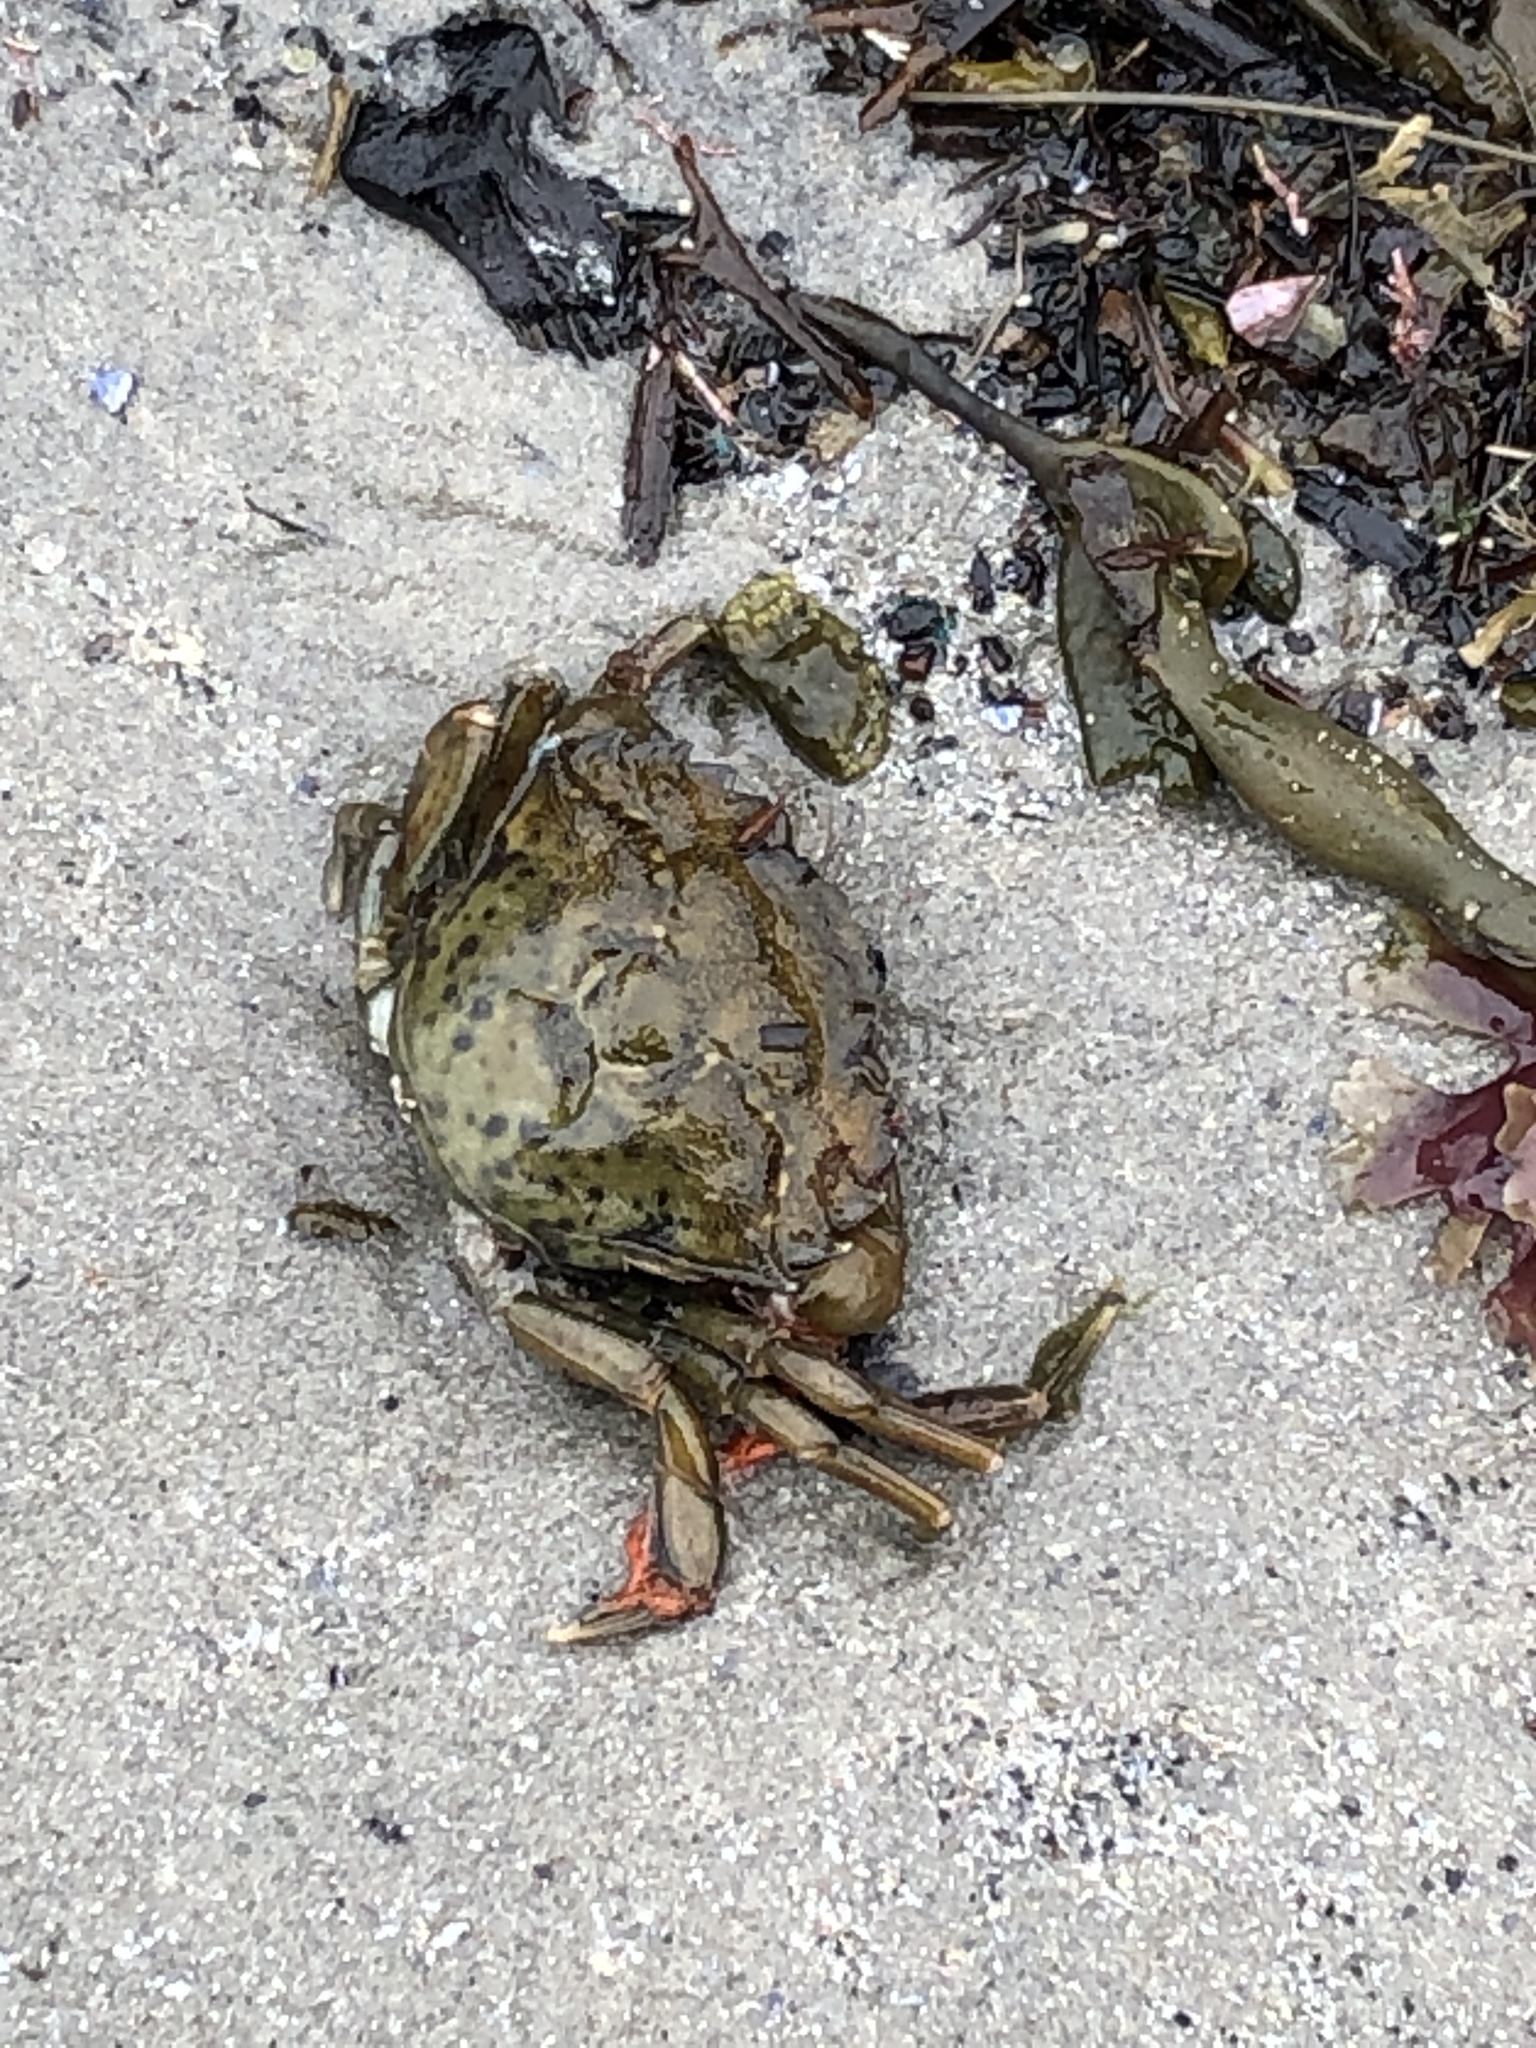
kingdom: Animalia
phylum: Arthropoda
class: Malacostraca
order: Decapoda
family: Carcinidae
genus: Carcinus
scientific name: Carcinus maenas
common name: European green crab
